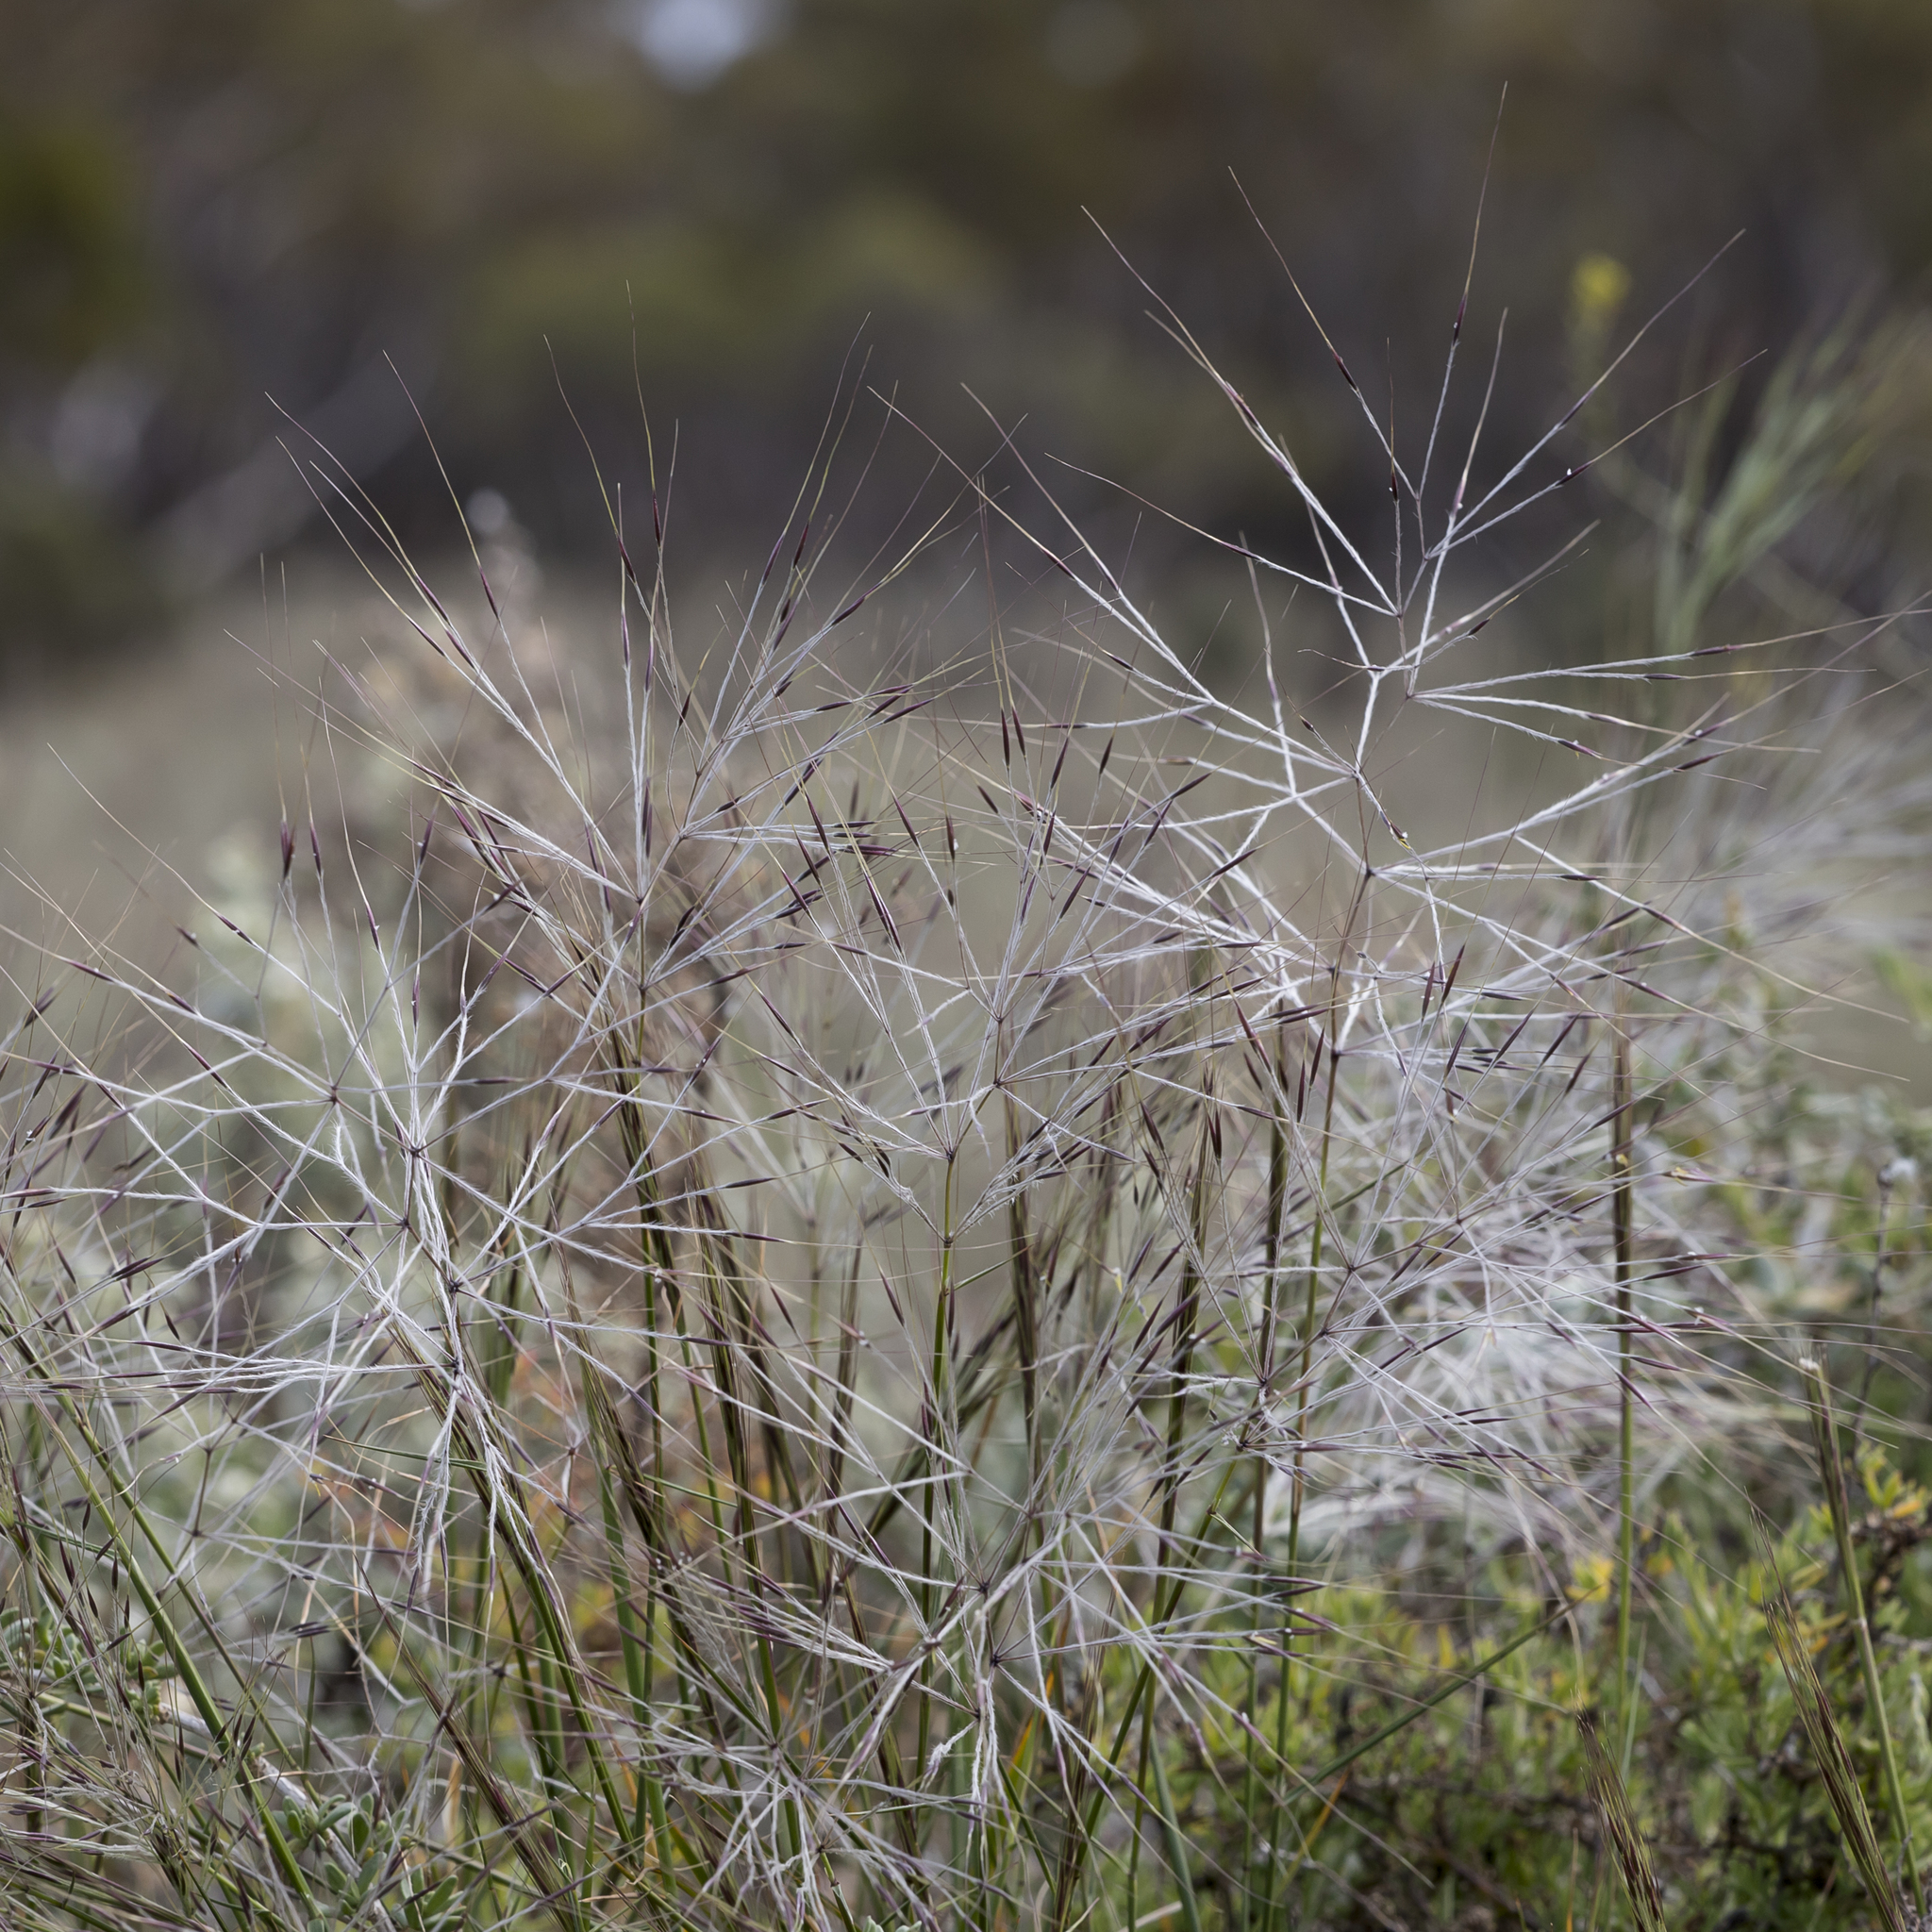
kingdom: Plantae
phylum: Tracheophyta
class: Liliopsida
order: Poales
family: Poaceae
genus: Austrostipa
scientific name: Austrostipa elegantissima
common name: Feather spear grass
